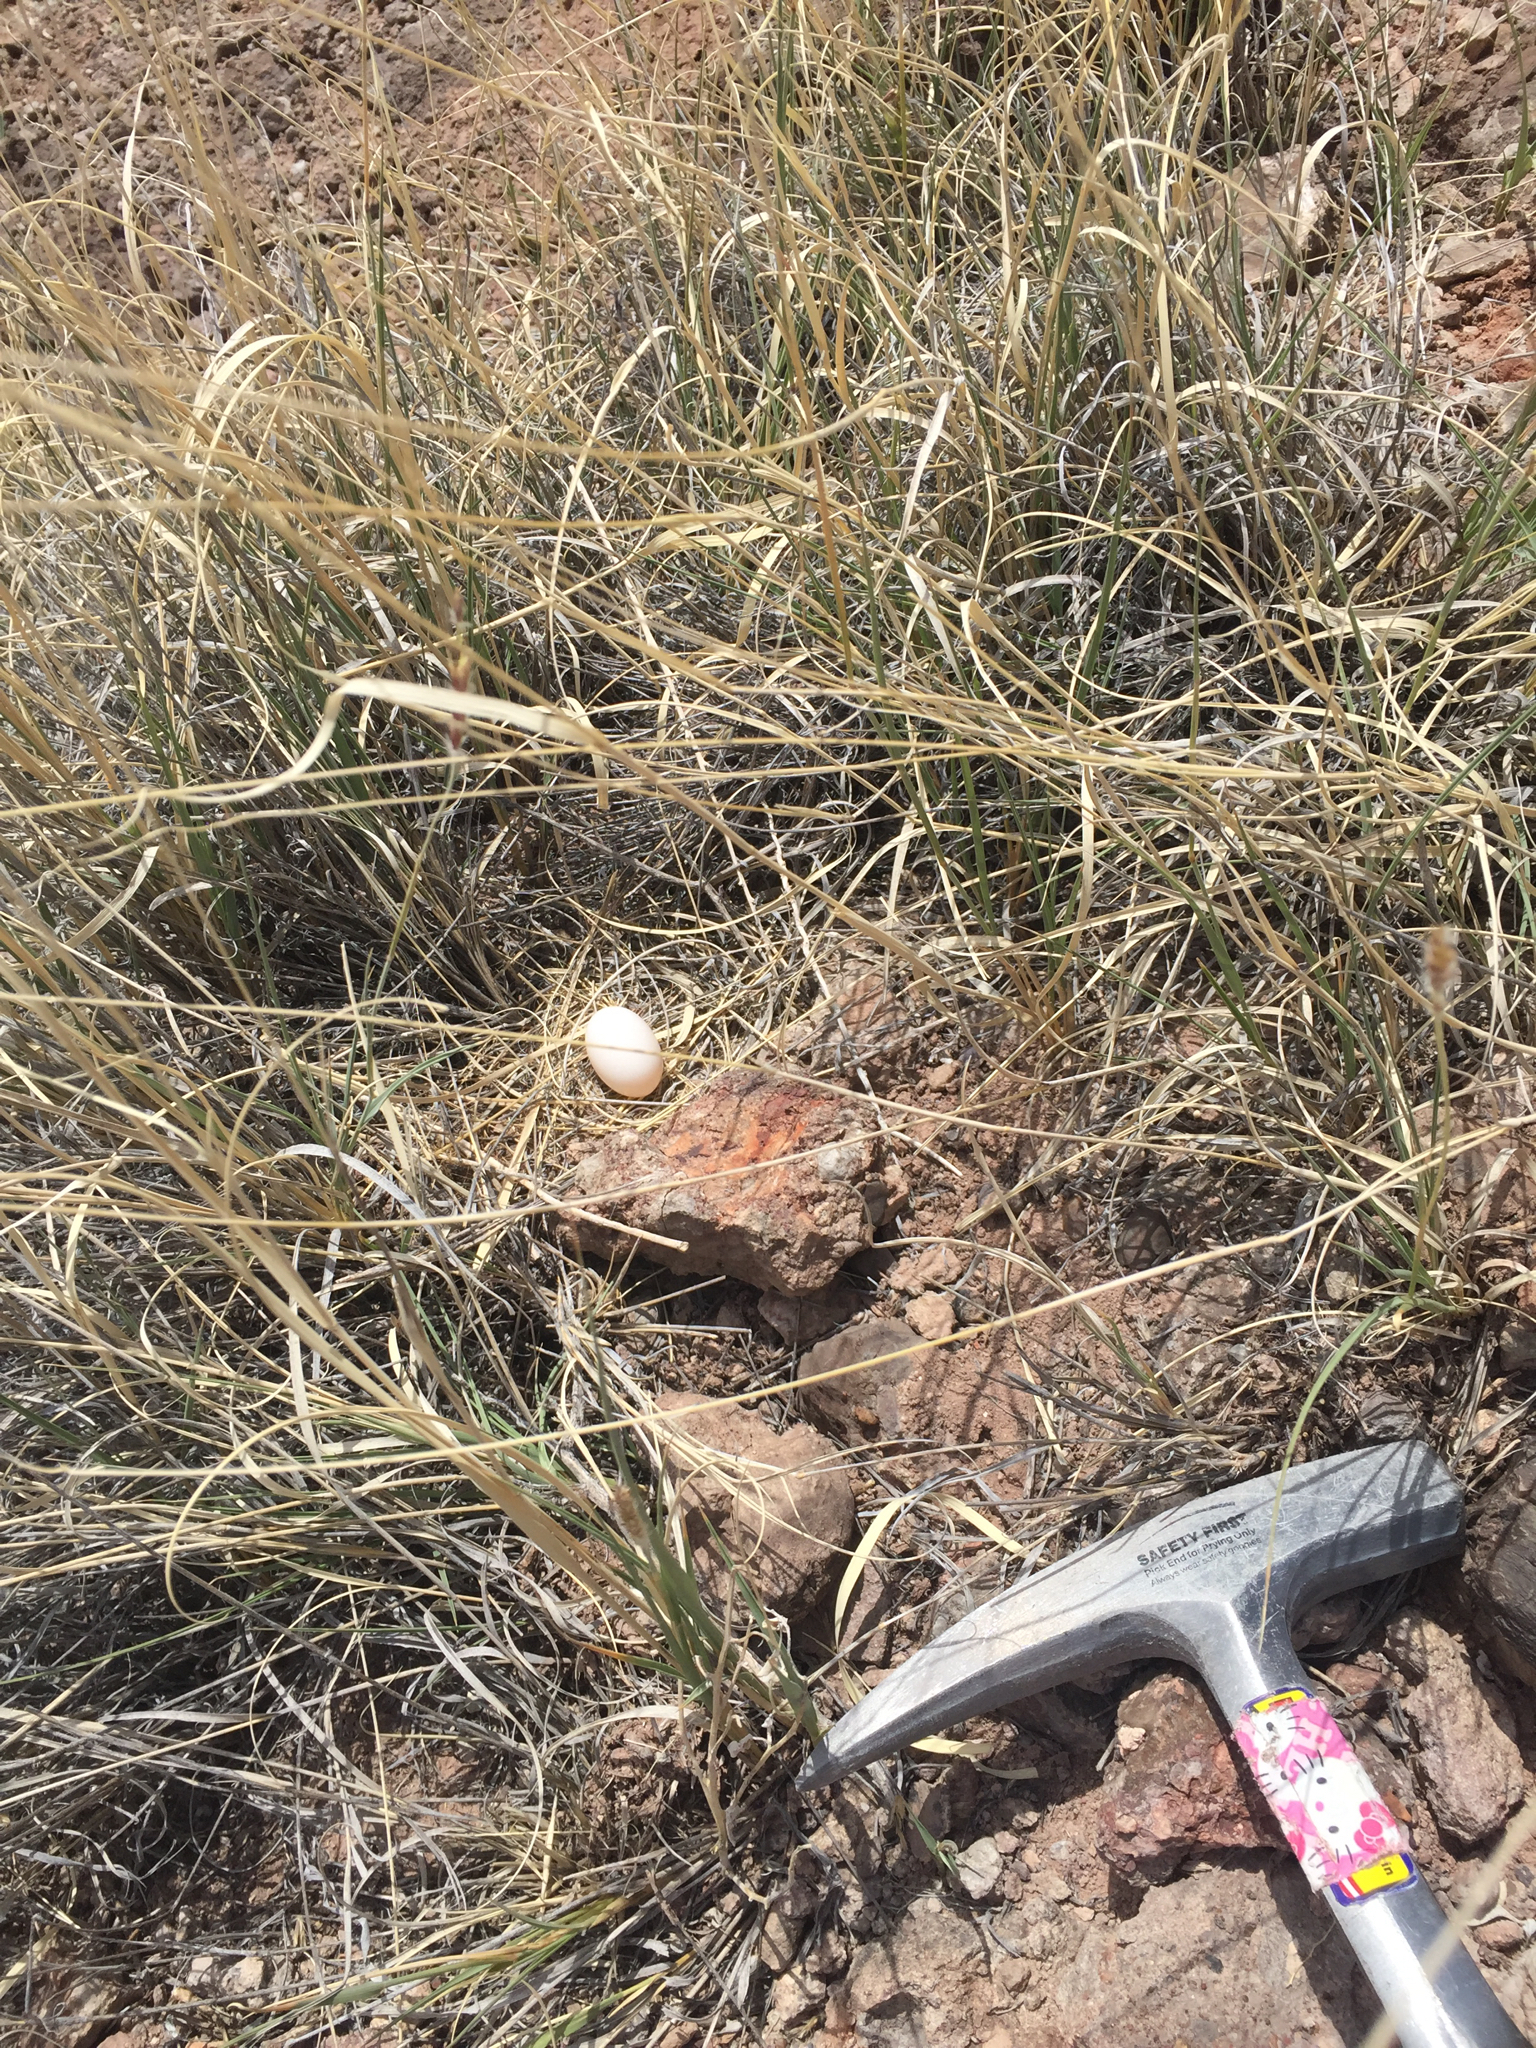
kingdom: Animalia
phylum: Chordata
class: Aves
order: Columbiformes
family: Columbidae
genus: Zenaida
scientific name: Zenaida macroura
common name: Mourning dove
